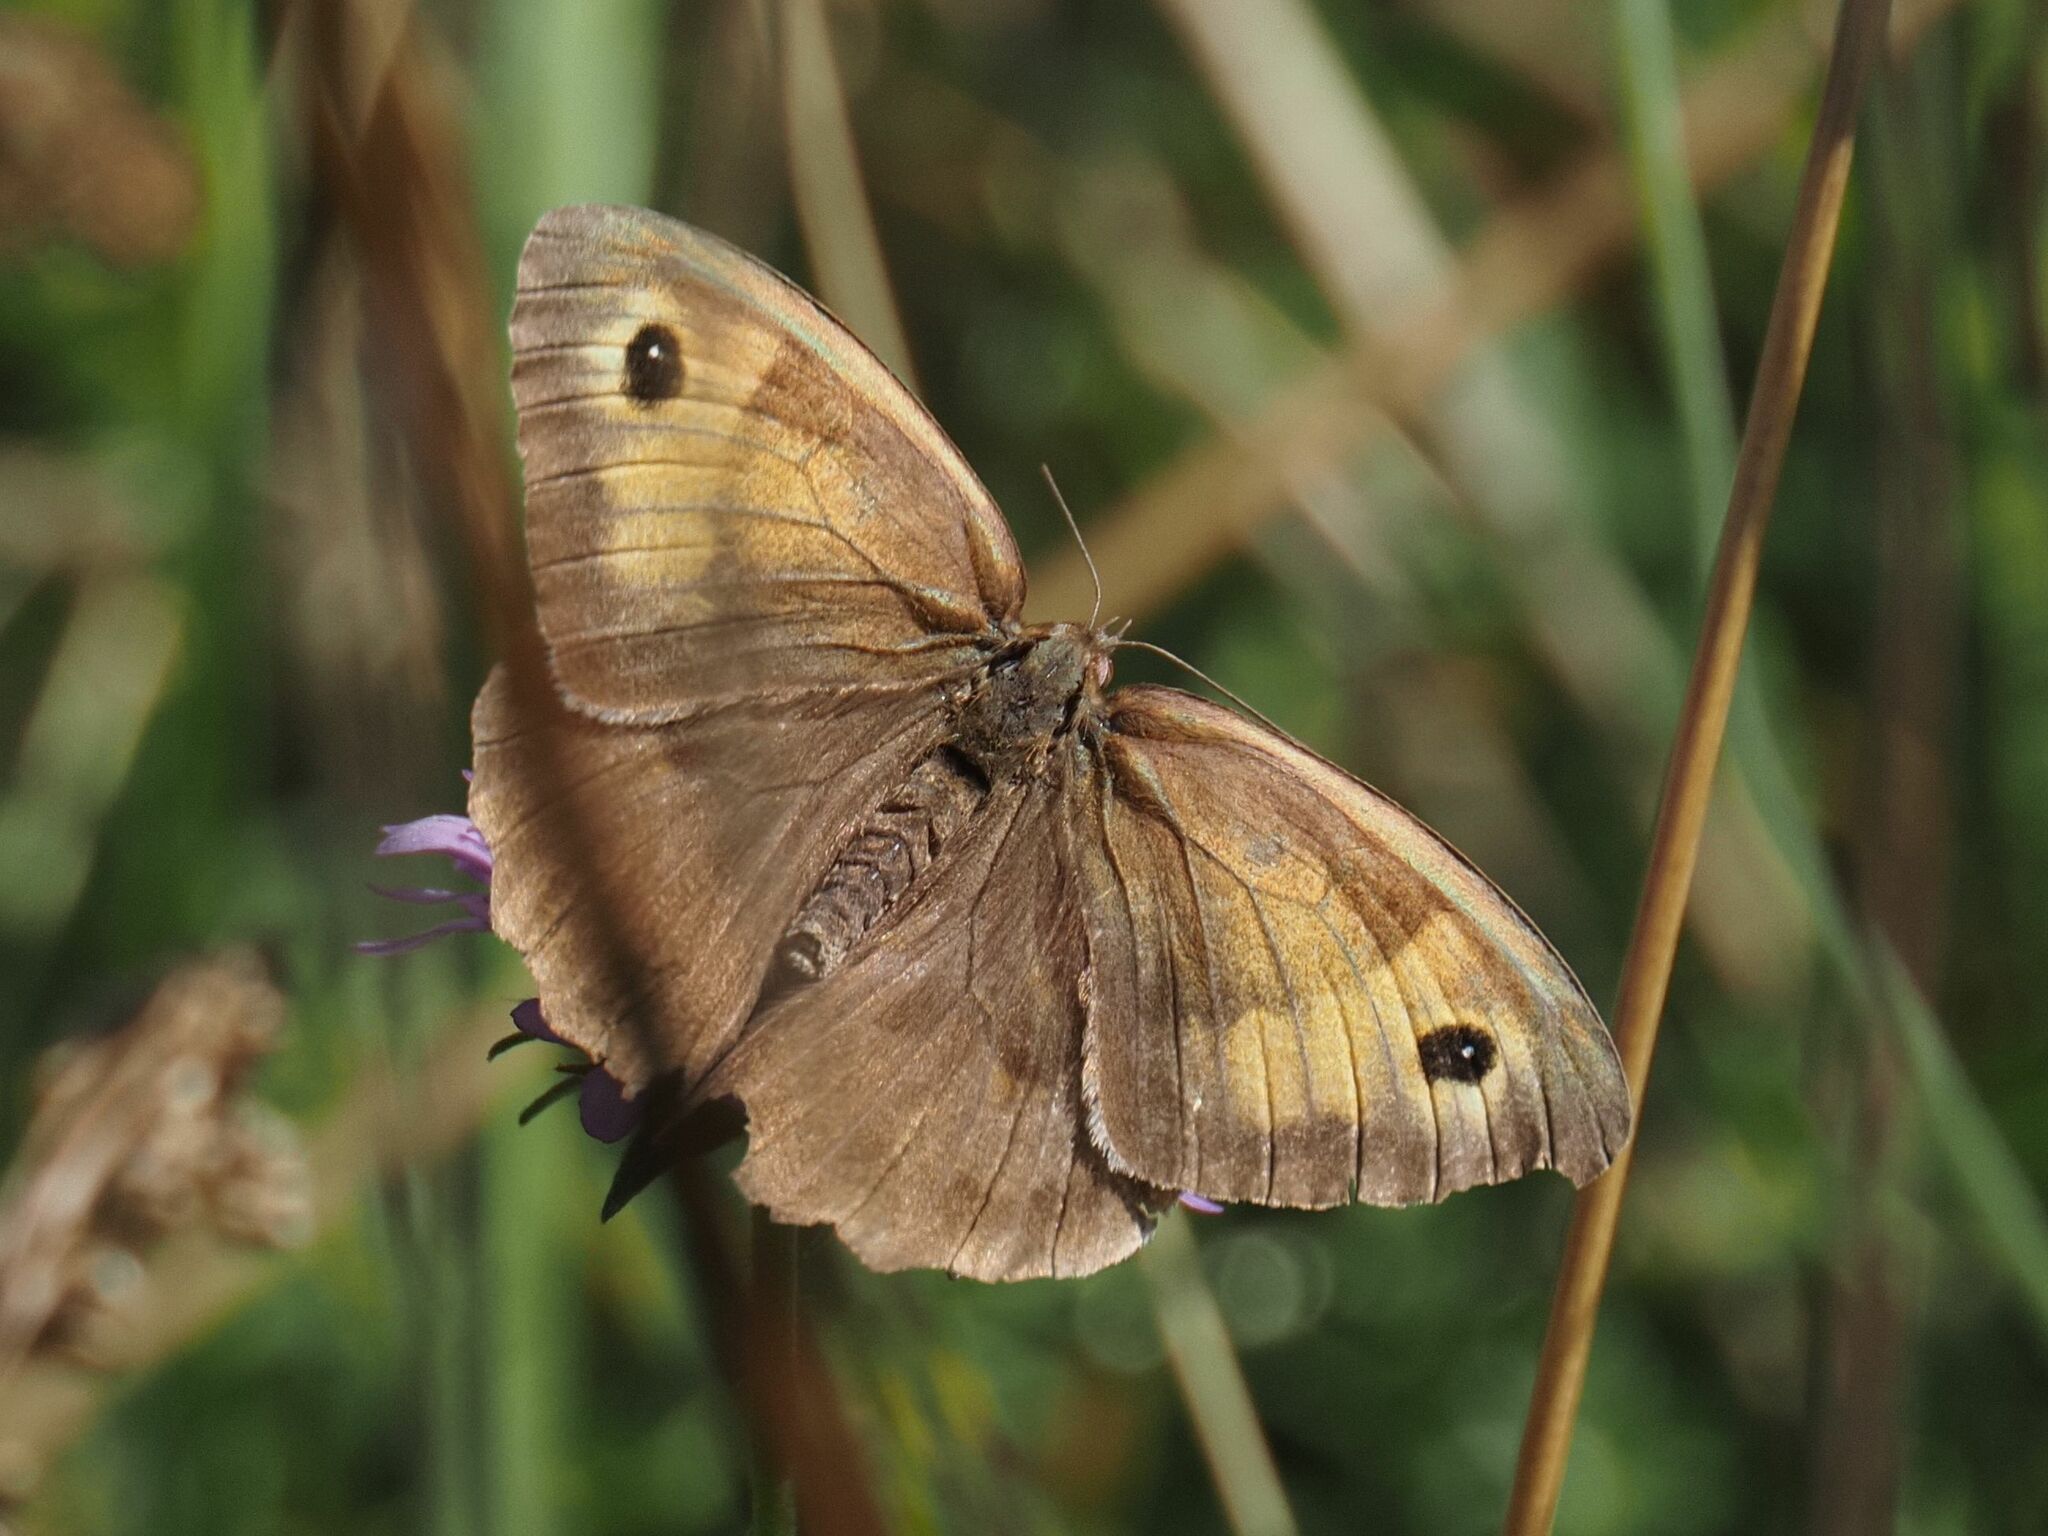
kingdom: Animalia
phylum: Arthropoda
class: Insecta
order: Lepidoptera
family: Nymphalidae
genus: Maniola
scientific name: Maniola jurtina
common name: Meadow brown
